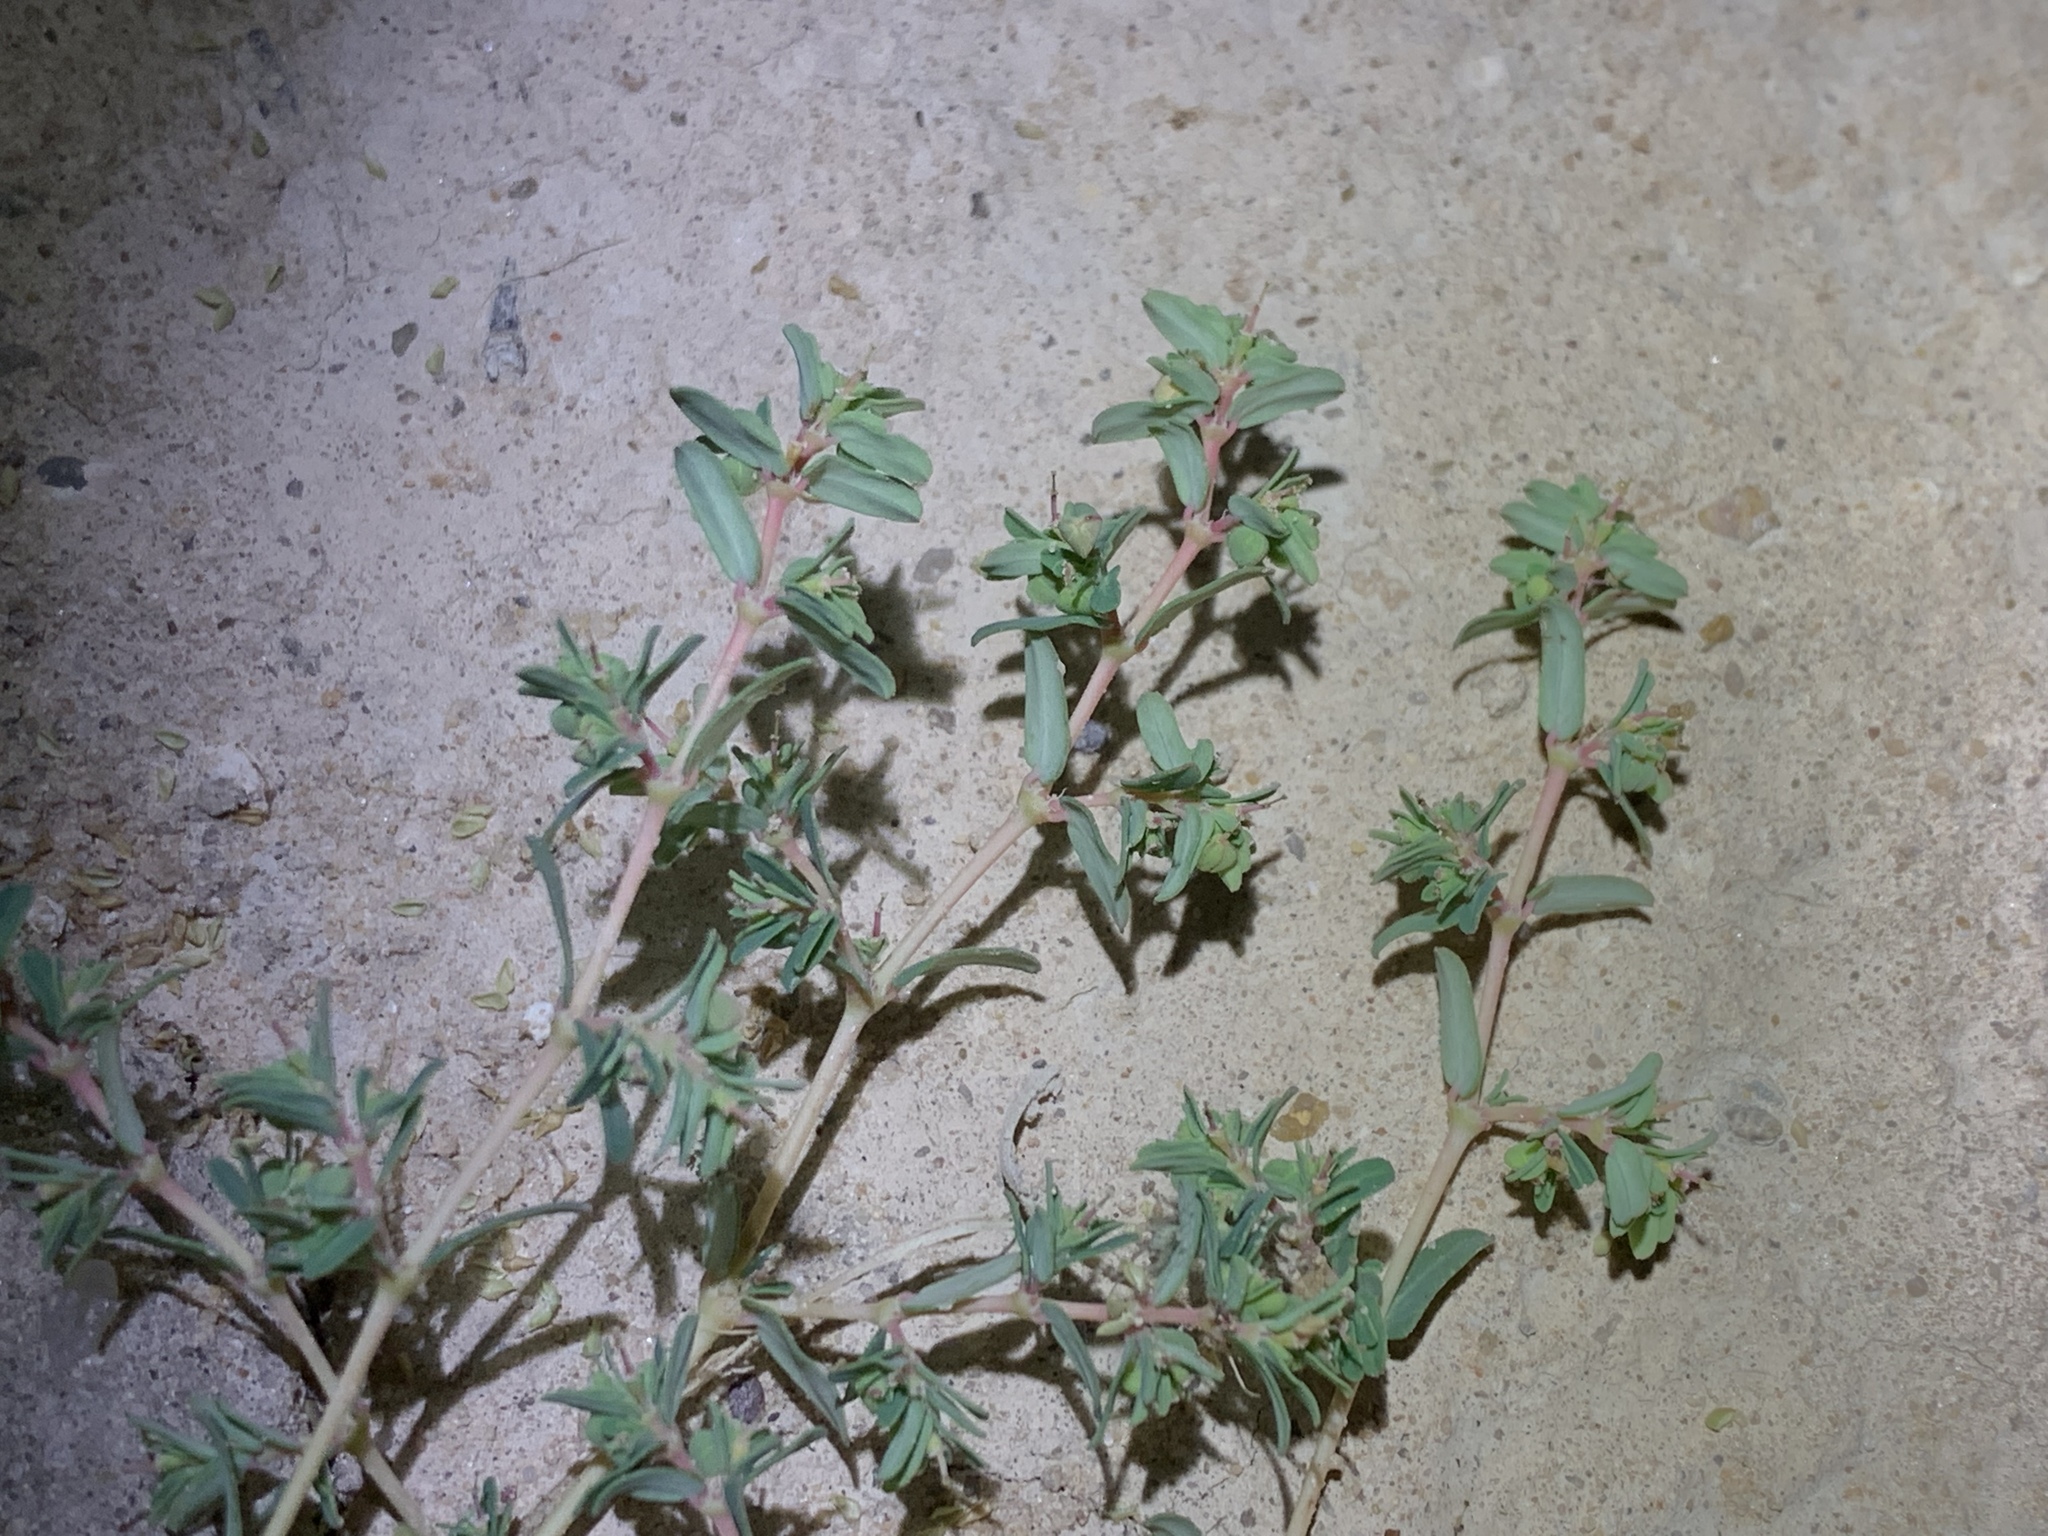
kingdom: Plantae
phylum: Tracheophyta
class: Magnoliopsida
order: Malpighiales
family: Euphorbiaceae
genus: Euphorbia
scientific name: Euphorbia glyptosperma
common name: Corrugate-seeded spurge
